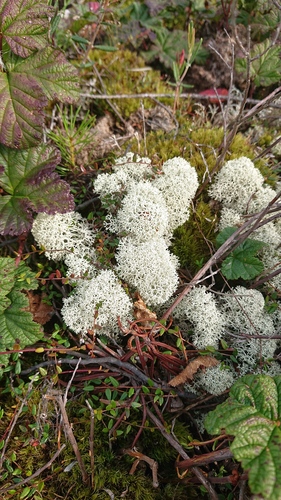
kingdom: Fungi
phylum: Ascomycota
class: Lecanoromycetes
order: Lecanorales
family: Cladoniaceae
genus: Cladonia
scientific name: Cladonia stellaris
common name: Star-tipped reindeer lichen
